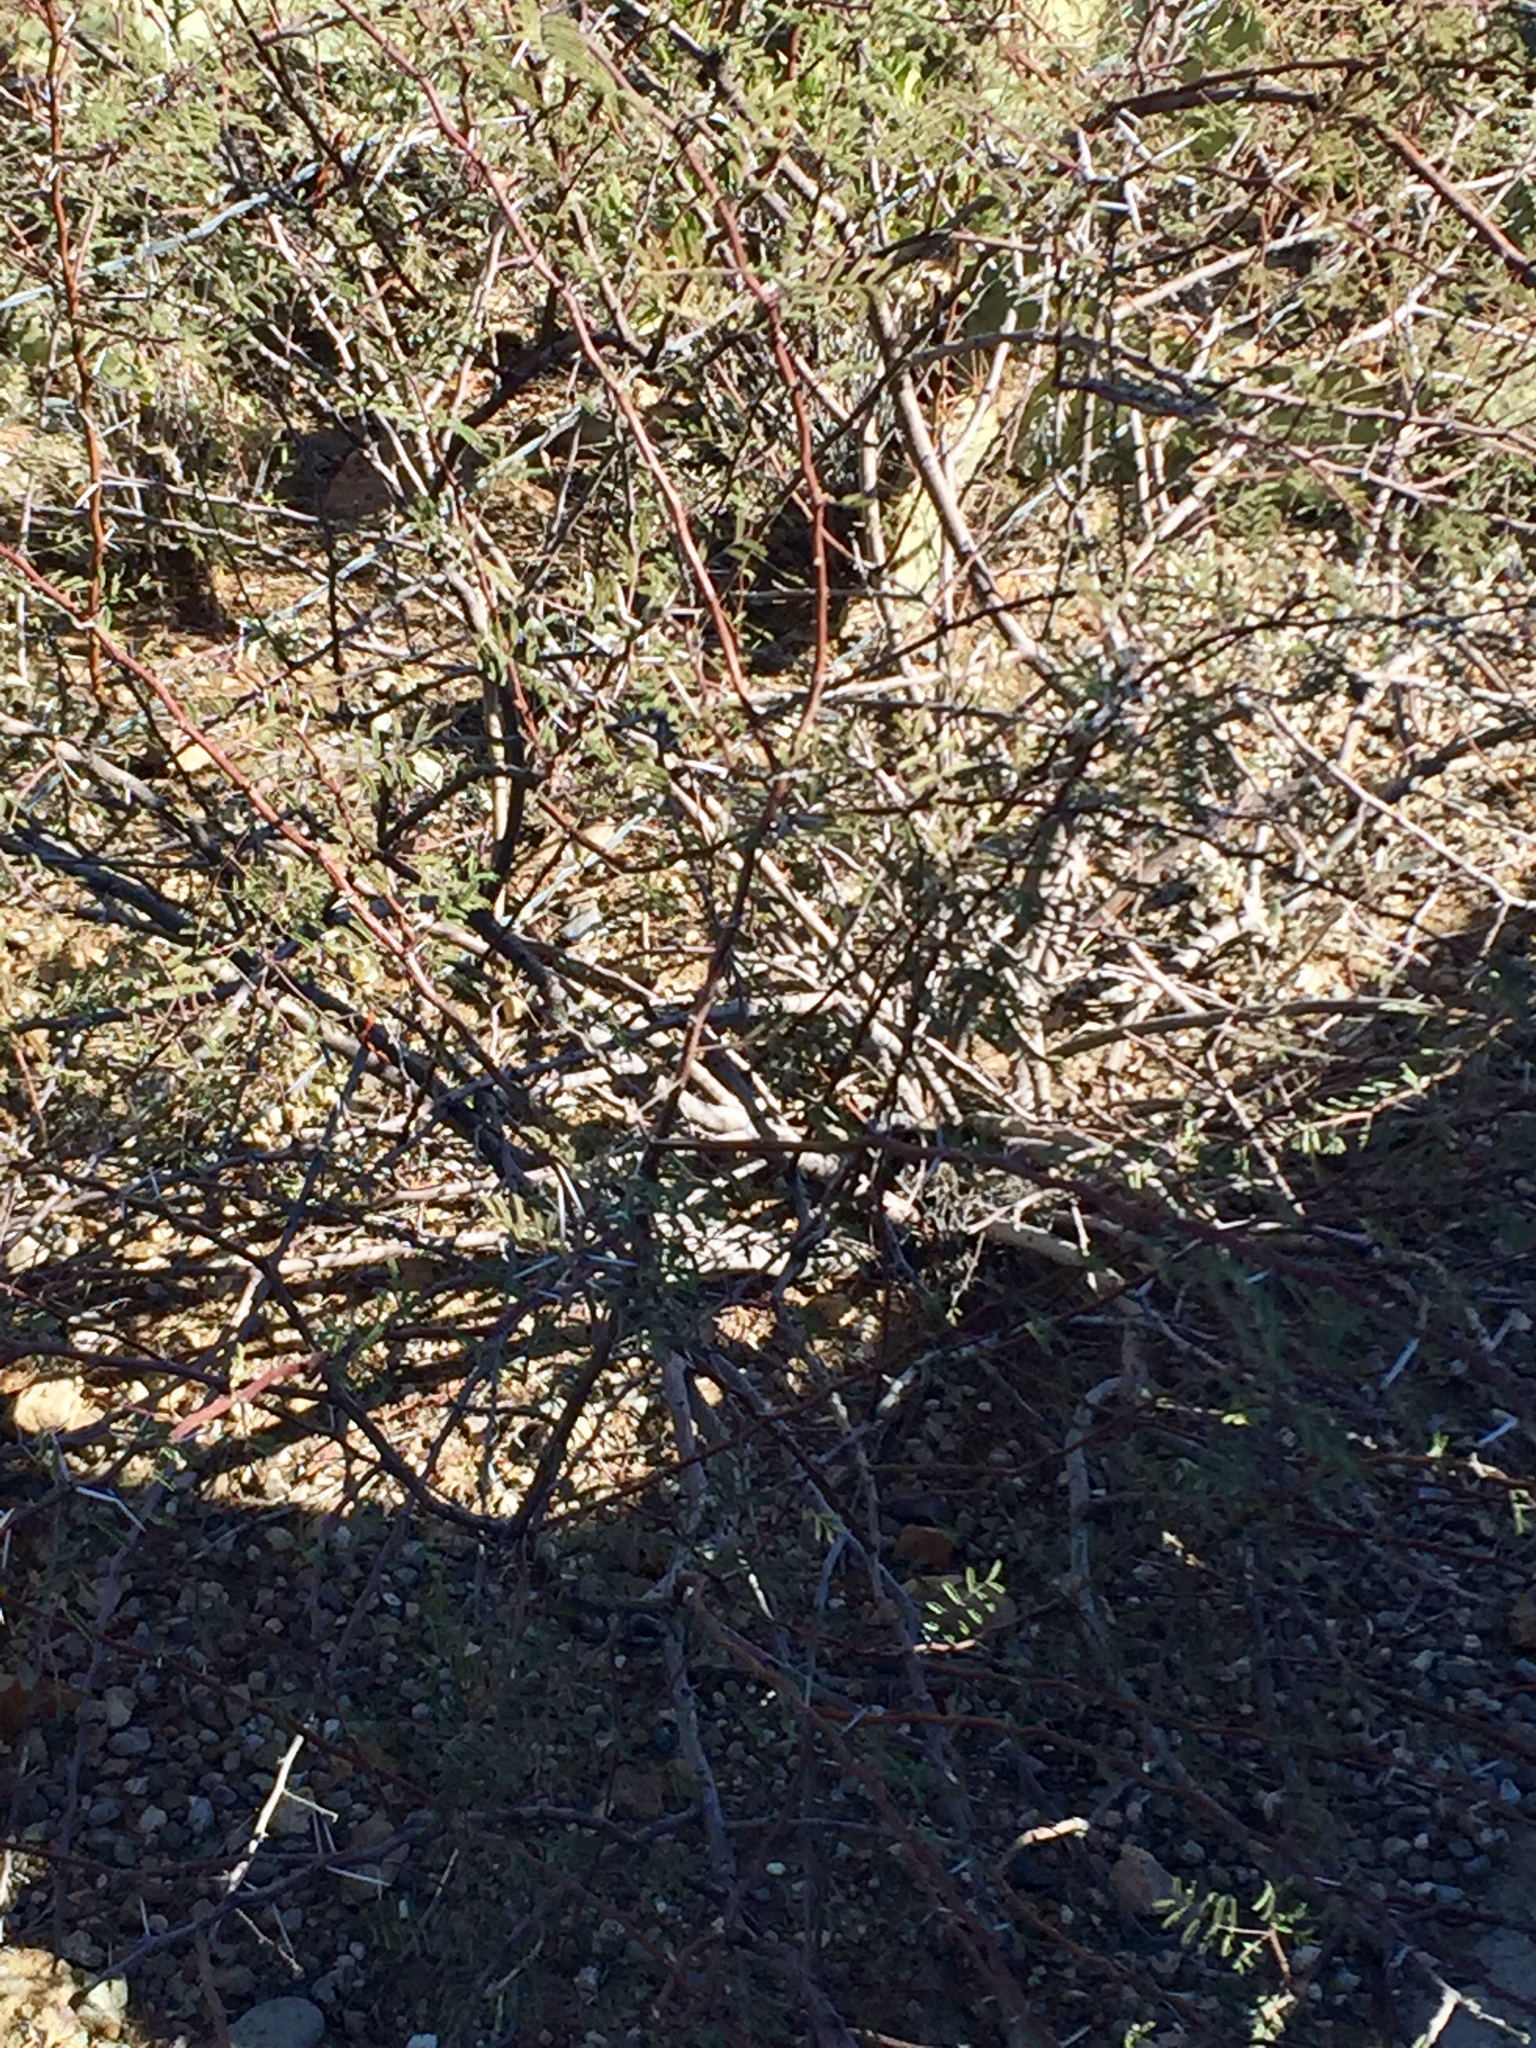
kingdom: Plantae
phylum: Tracheophyta
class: Magnoliopsida
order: Fabales
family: Fabaceae
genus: Vachellia
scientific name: Vachellia constricta
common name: Mescat acacia
